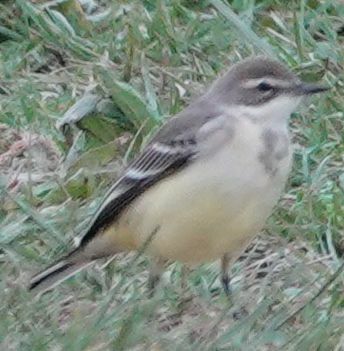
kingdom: Animalia
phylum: Chordata
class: Aves
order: Passeriformes
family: Motacillidae
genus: Motacilla
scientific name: Motacilla flava
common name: Western yellow wagtail
